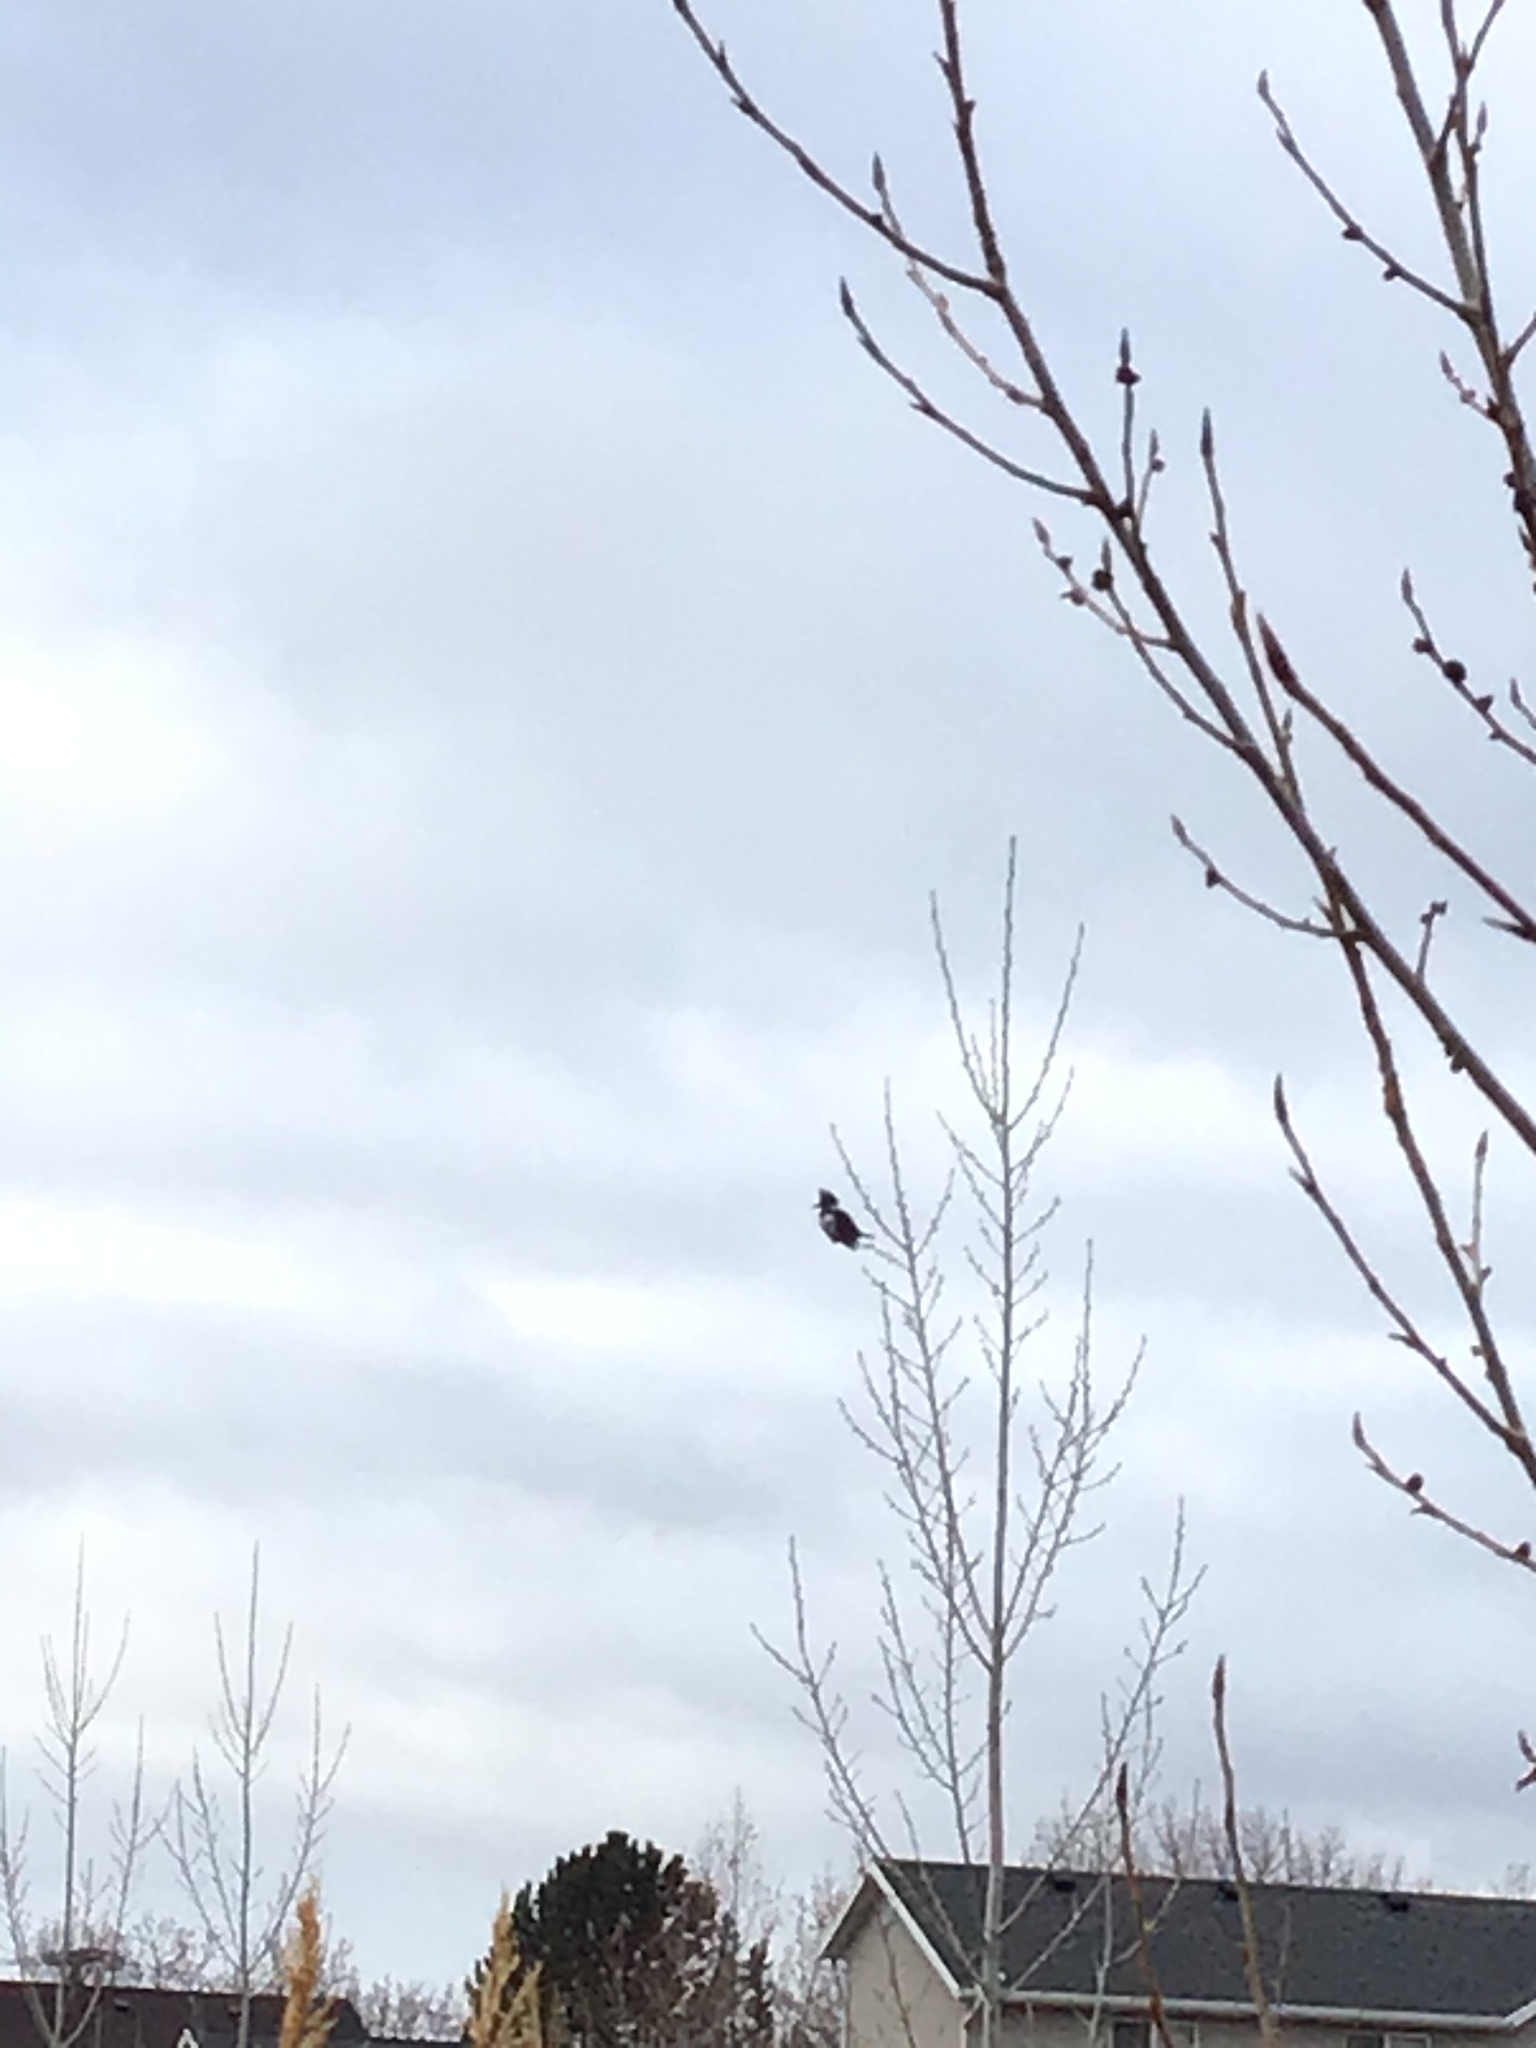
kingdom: Animalia
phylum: Chordata
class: Aves
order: Coraciiformes
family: Alcedinidae
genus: Megaceryle
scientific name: Megaceryle alcyon
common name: Belted kingfisher
